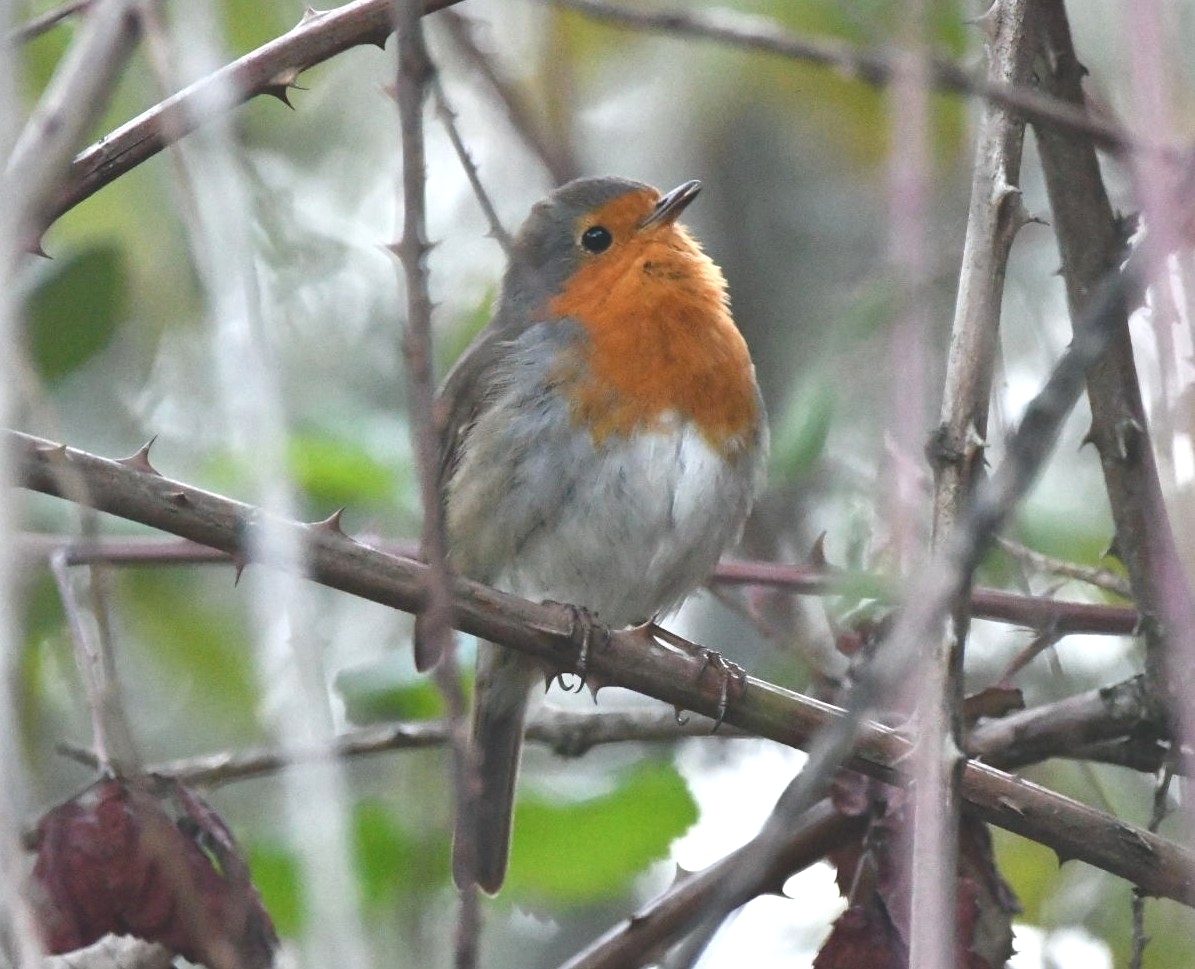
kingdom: Animalia
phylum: Chordata
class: Aves
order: Passeriformes
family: Muscicapidae
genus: Erithacus
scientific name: Erithacus rubecula
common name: European robin
